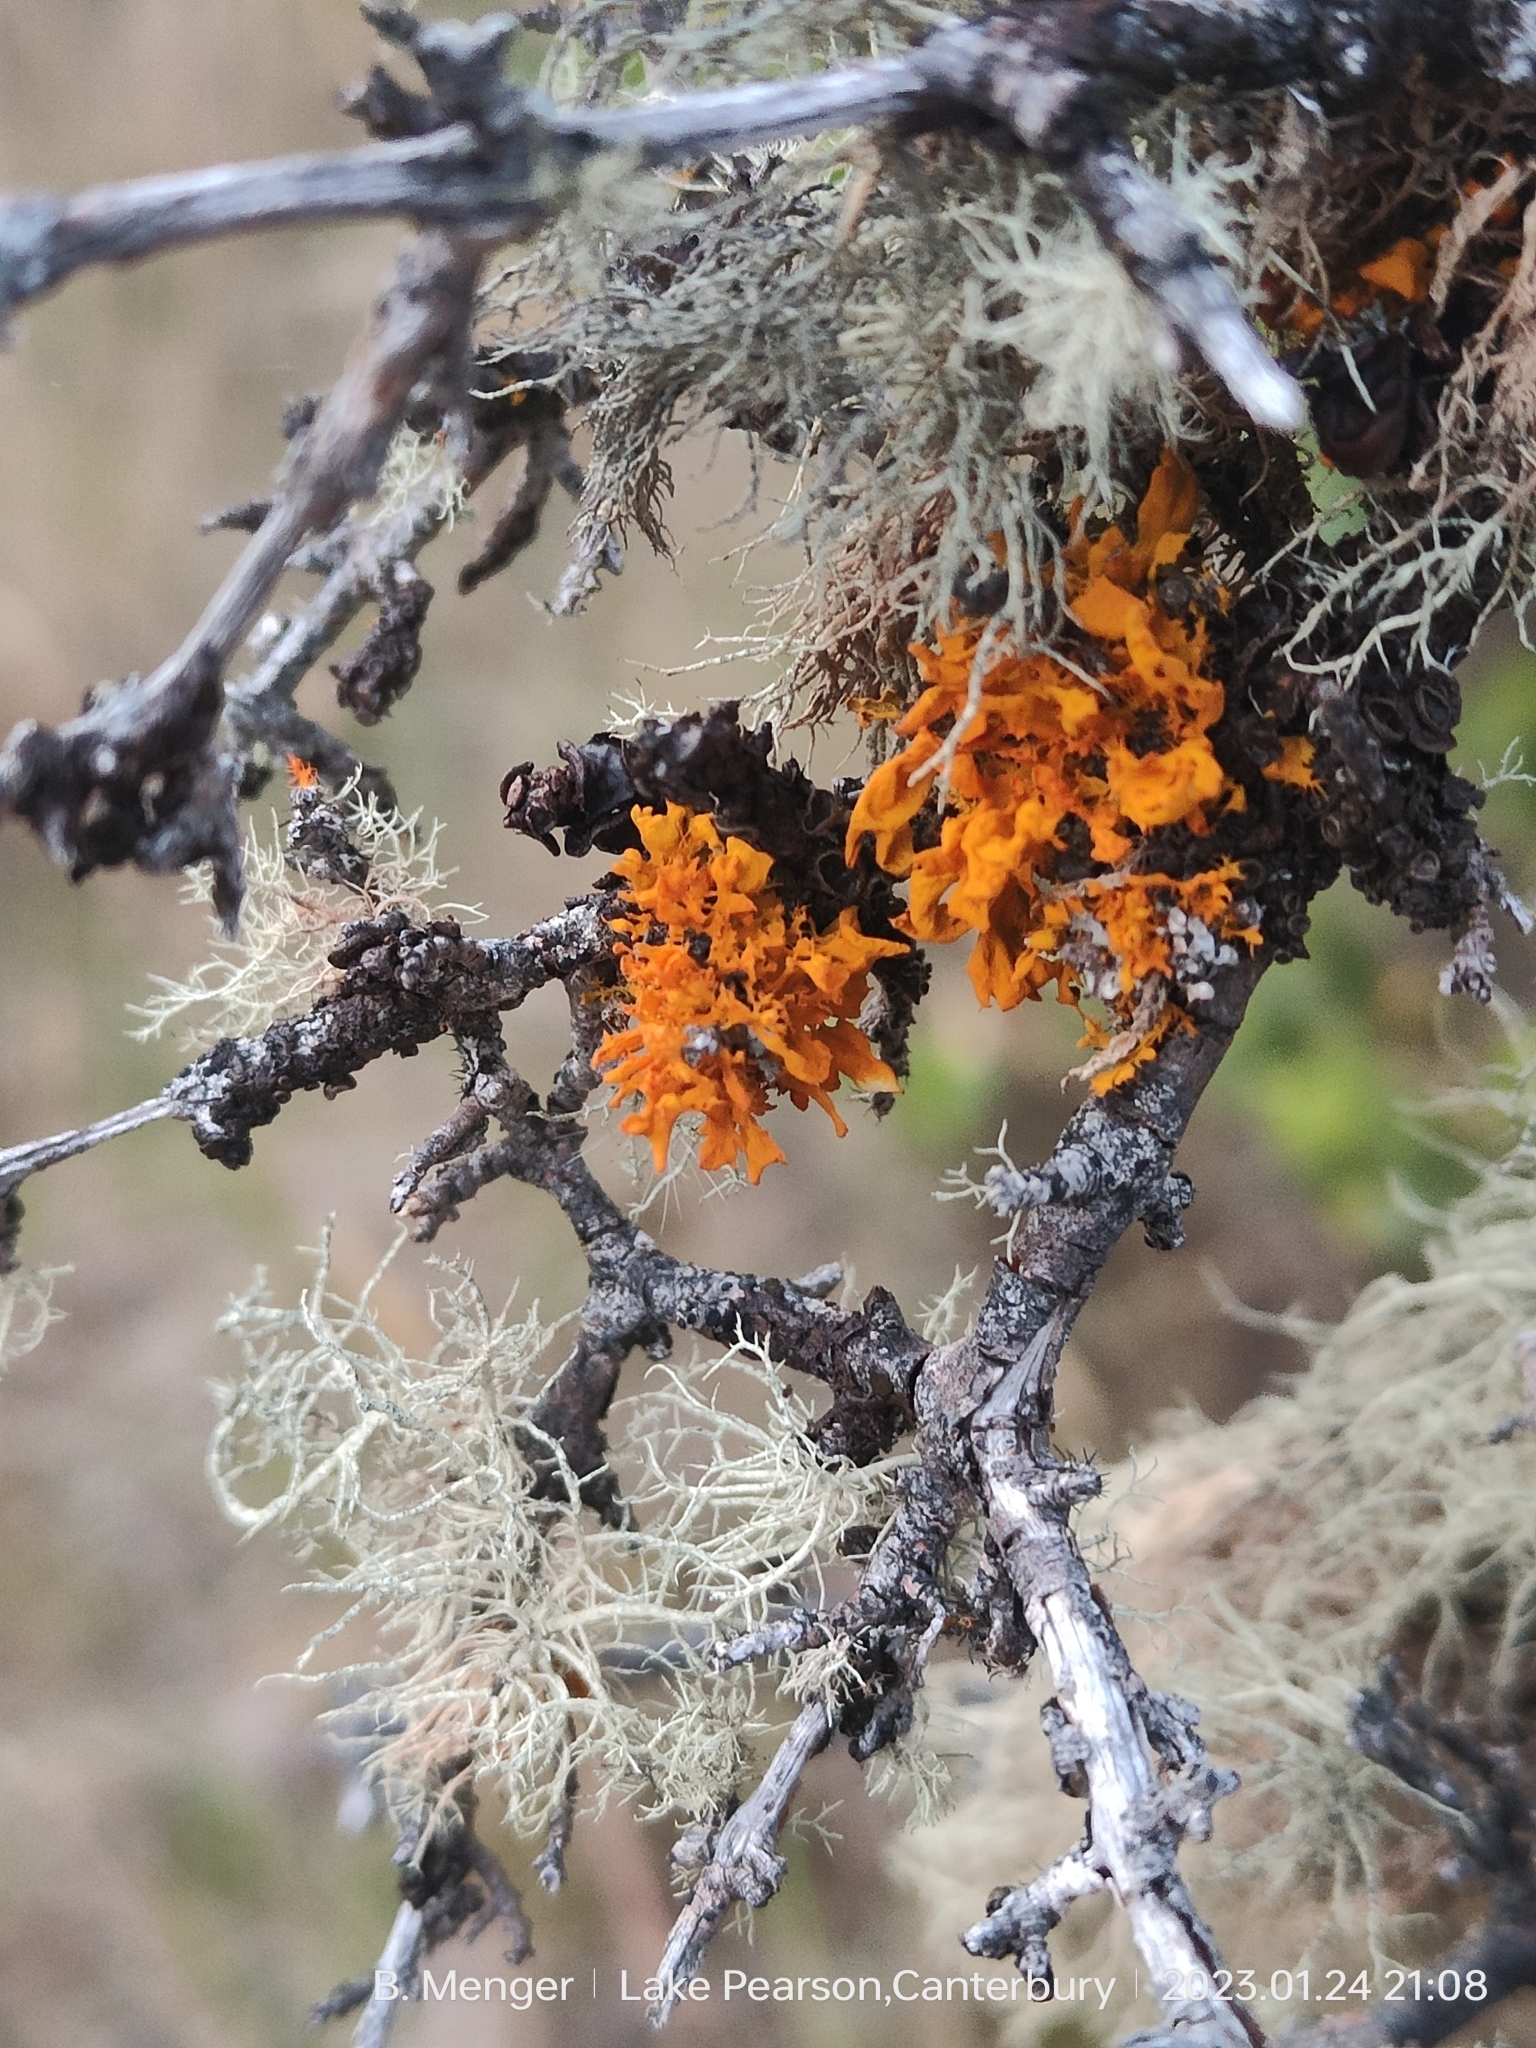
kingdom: Fungi
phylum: Ascomycota
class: Lecanoromycetes
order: Teloschistales
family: Teloschistaceae
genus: Teloschistes
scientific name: Teloschistes velifer
